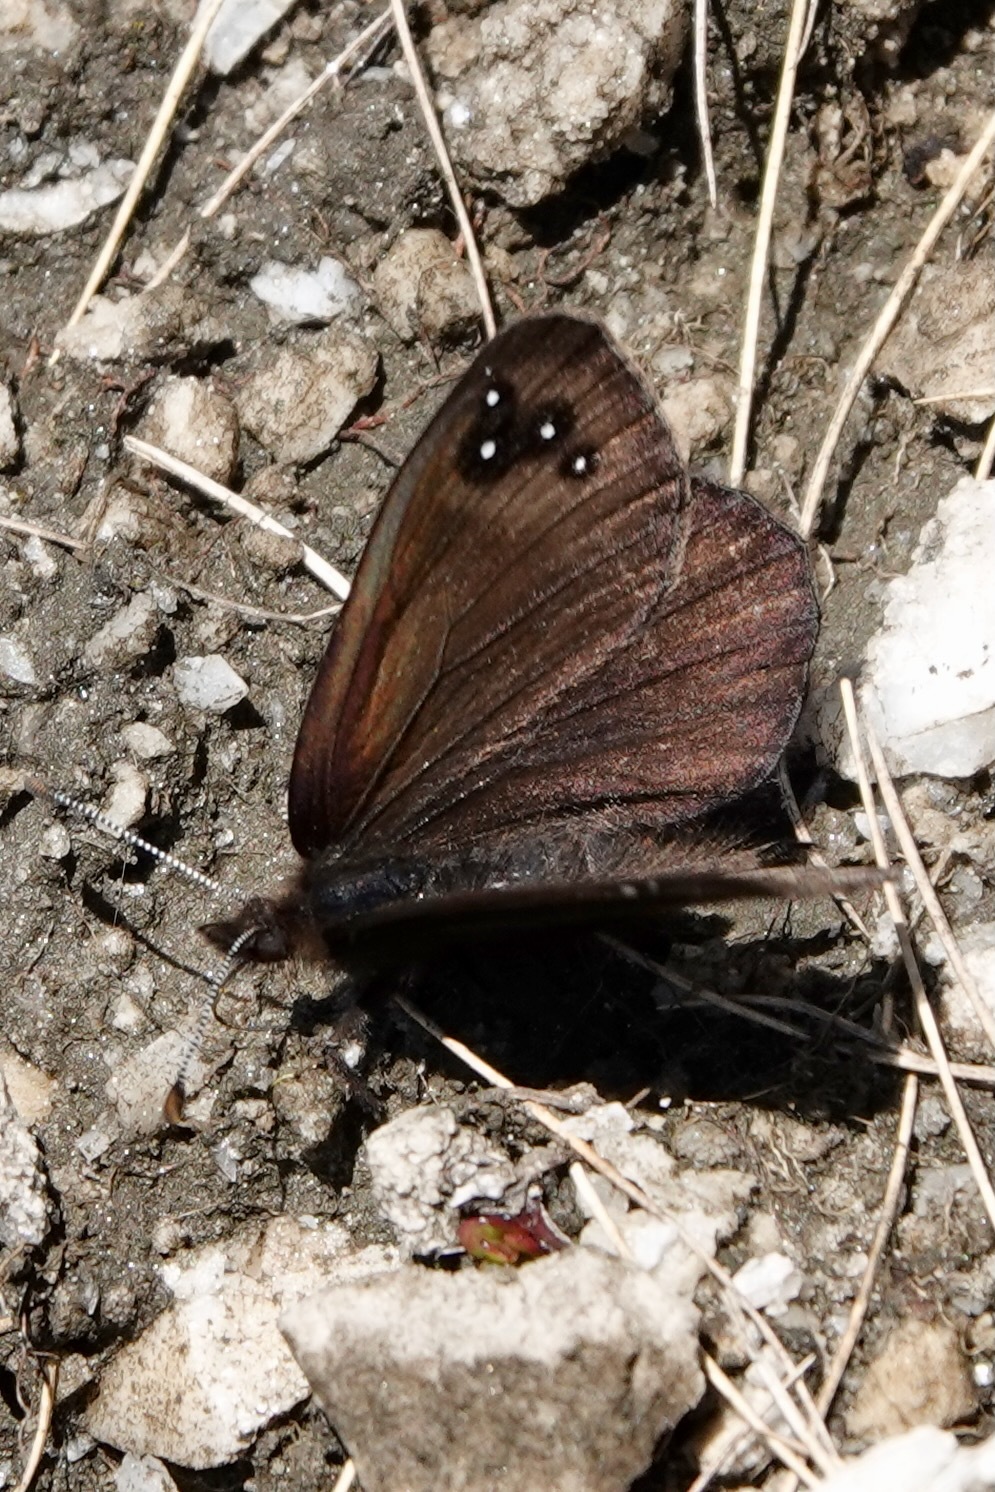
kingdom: Animalia
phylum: Arthropoda
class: Insecta
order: Lepidoptera
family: Nymphalidae
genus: Erebia
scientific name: Erebia Percnodaimon merula
